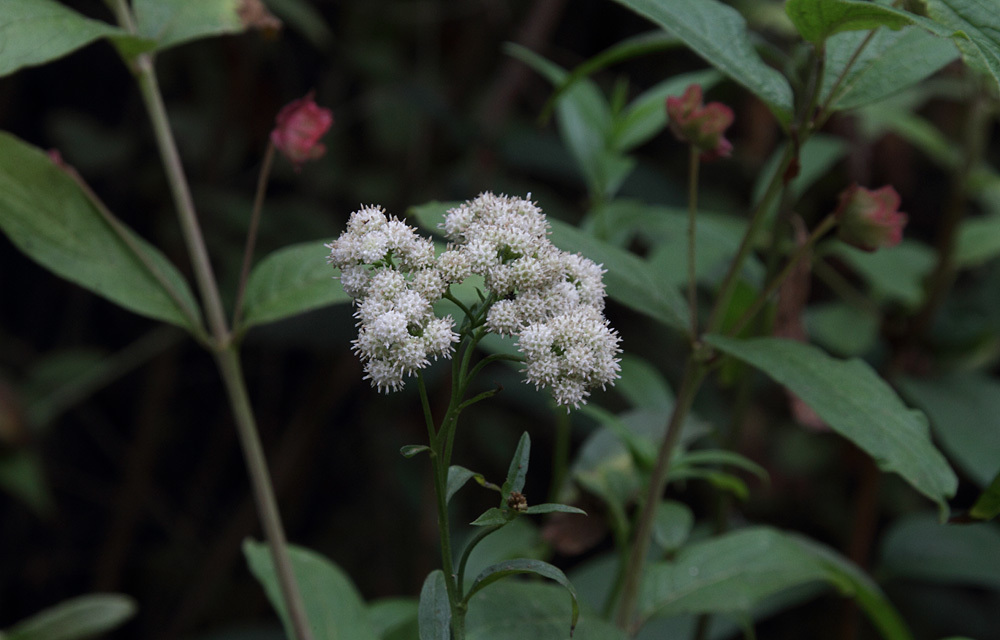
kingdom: Plantae
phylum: Tracheophyta
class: Magnoliopsida
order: Asterales
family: Asteraceae
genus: Baccharis
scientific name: Baccharis glutinosa
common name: Saltmarsh baccharis
